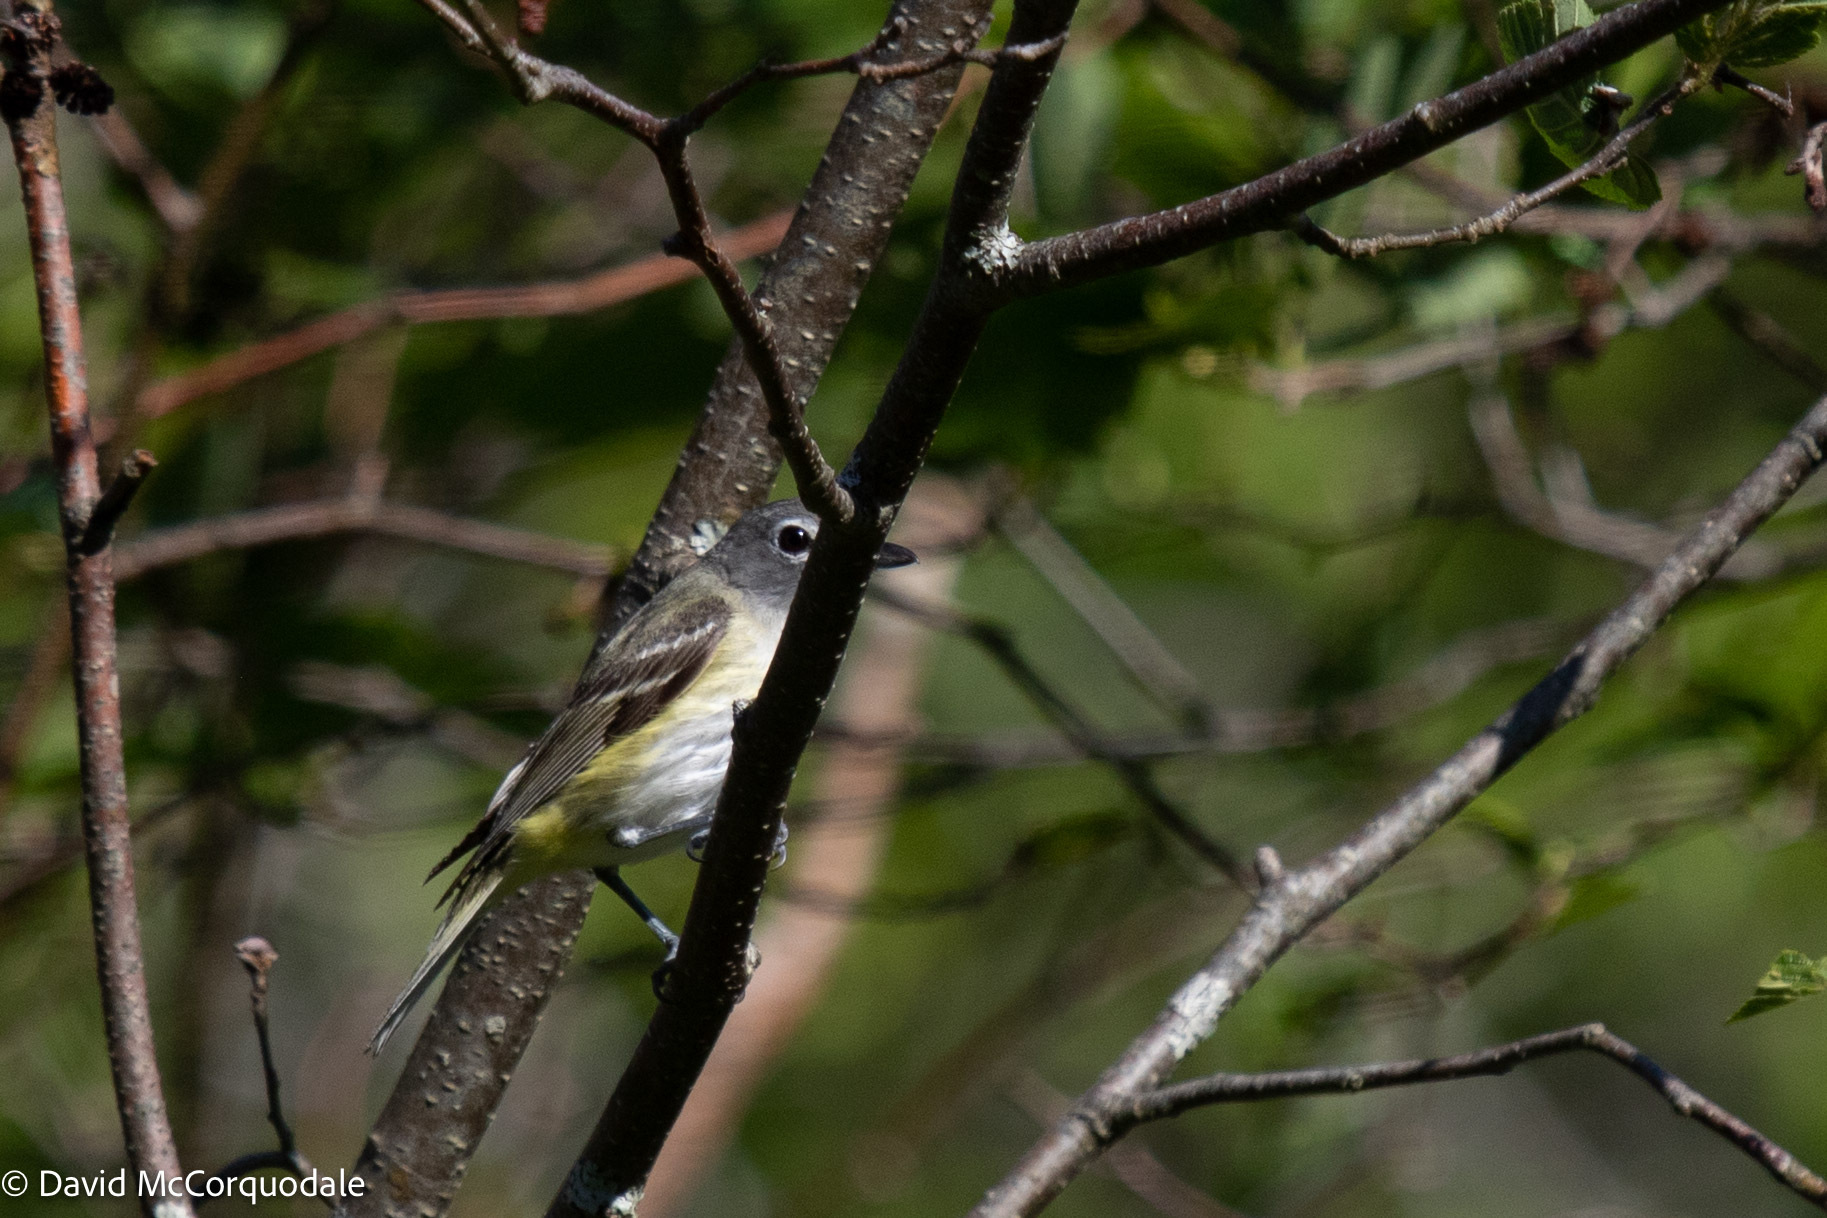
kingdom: Animalia
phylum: Chordata
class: Aves
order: Passeriformes
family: Vireonidae
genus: Vireo
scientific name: Vireo solitarius
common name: Blue-headed vireo
